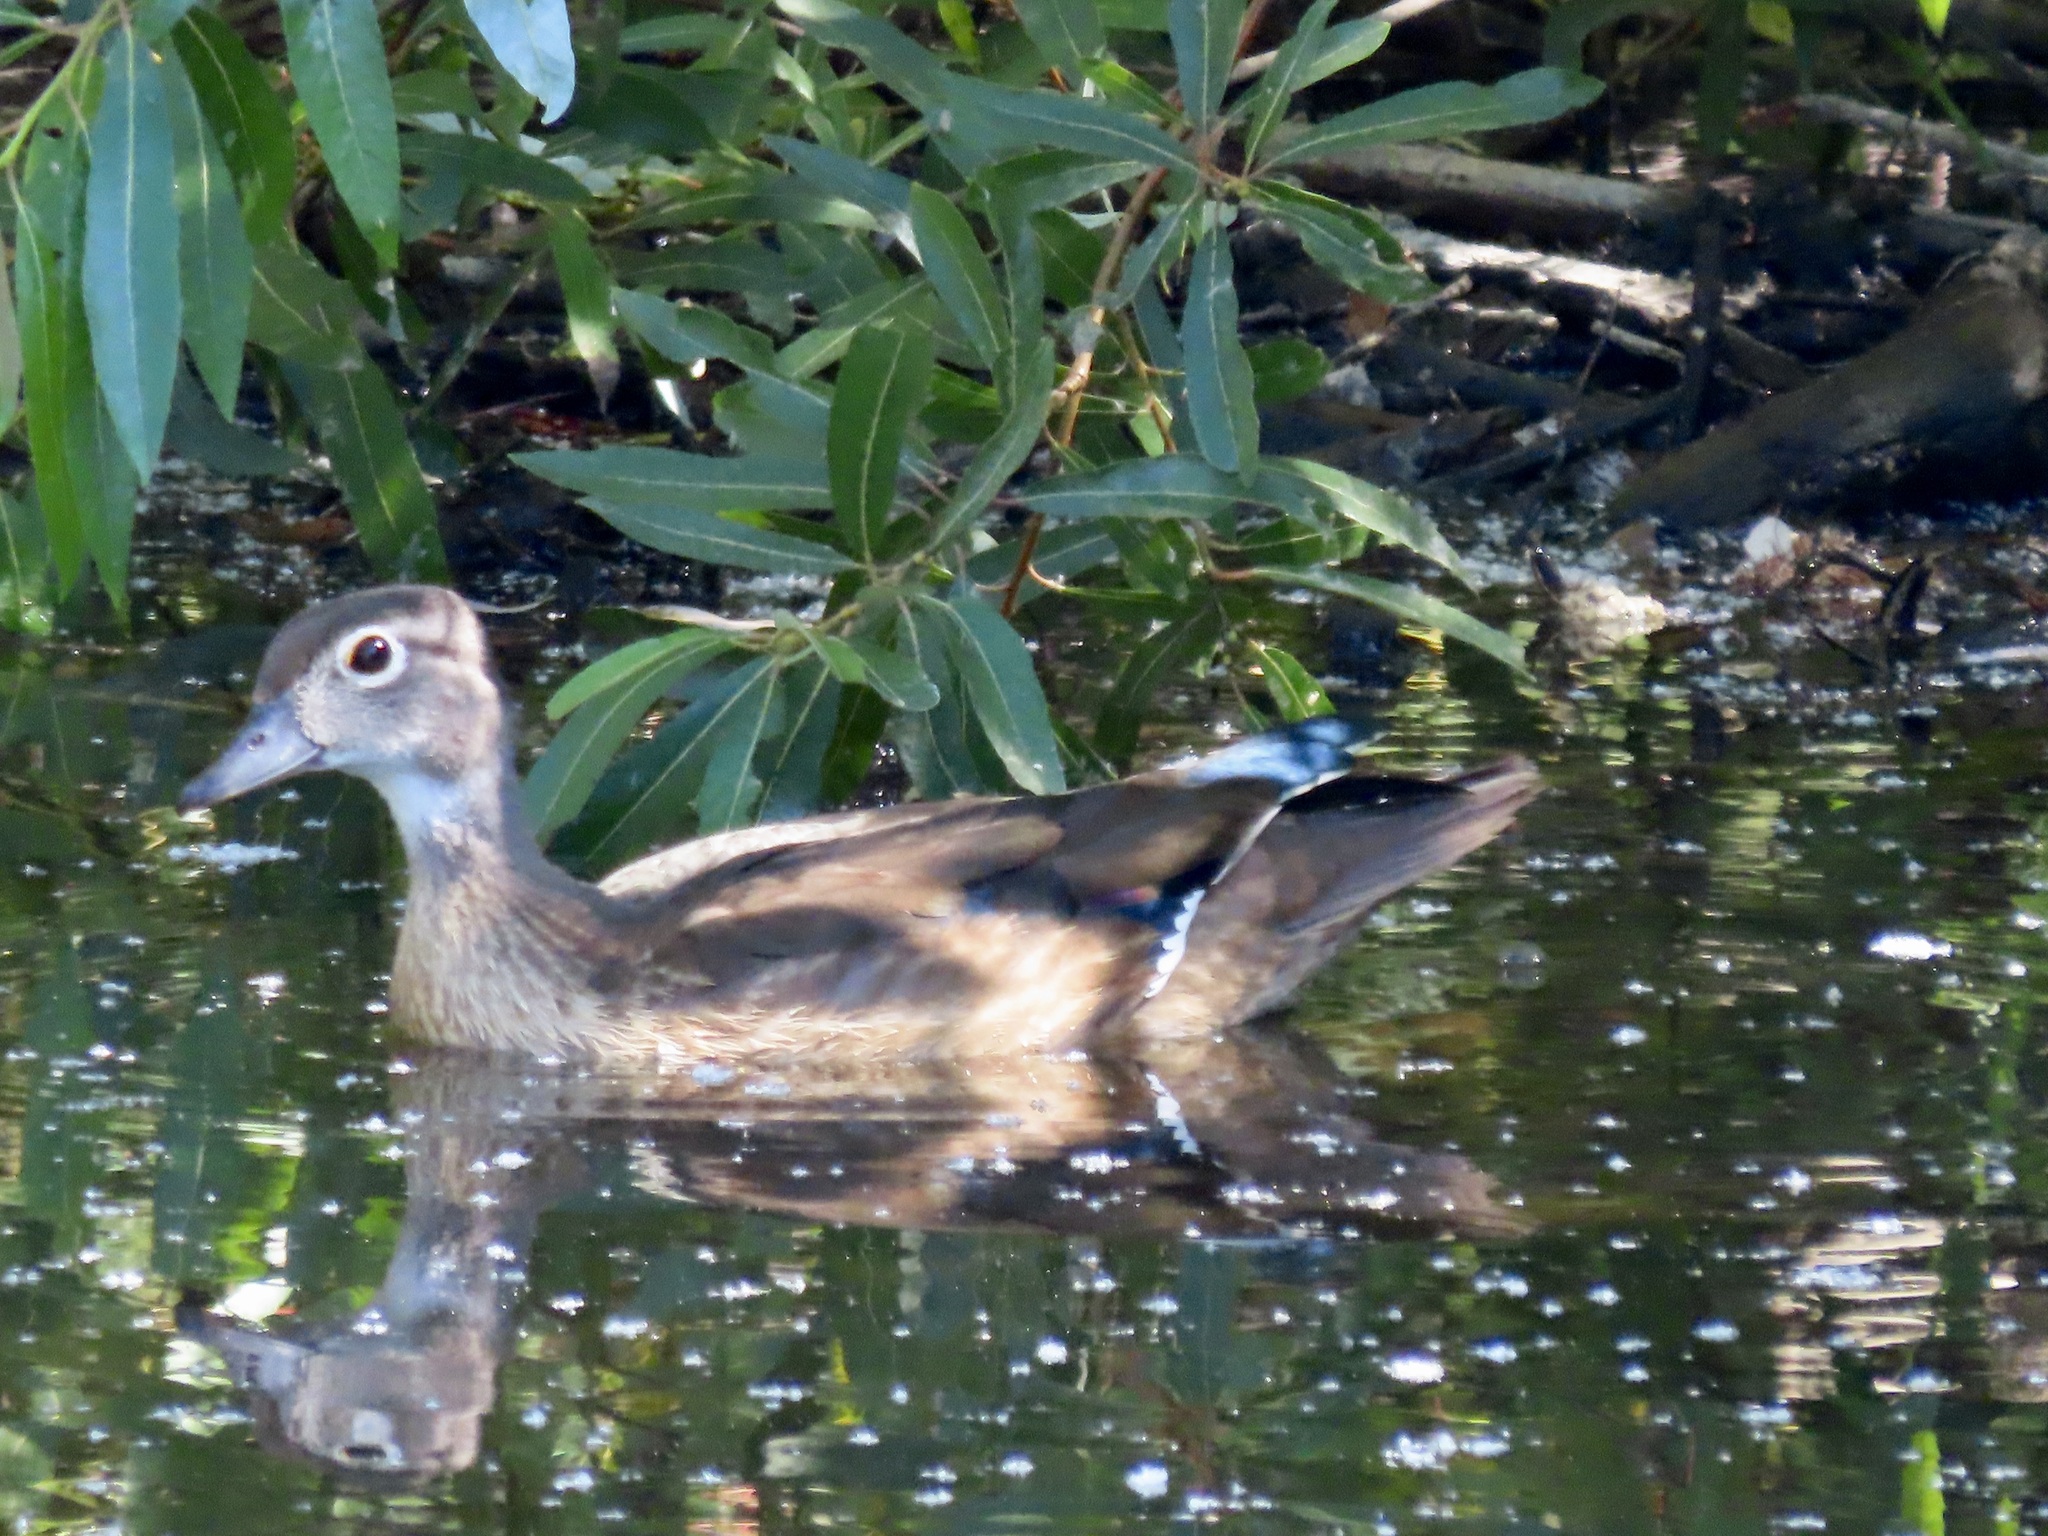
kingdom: Animalia
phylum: Chordata
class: Aves
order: Anseriformes
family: Anatidae
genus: Aix
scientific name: Aix sponsa
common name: Wood duck
